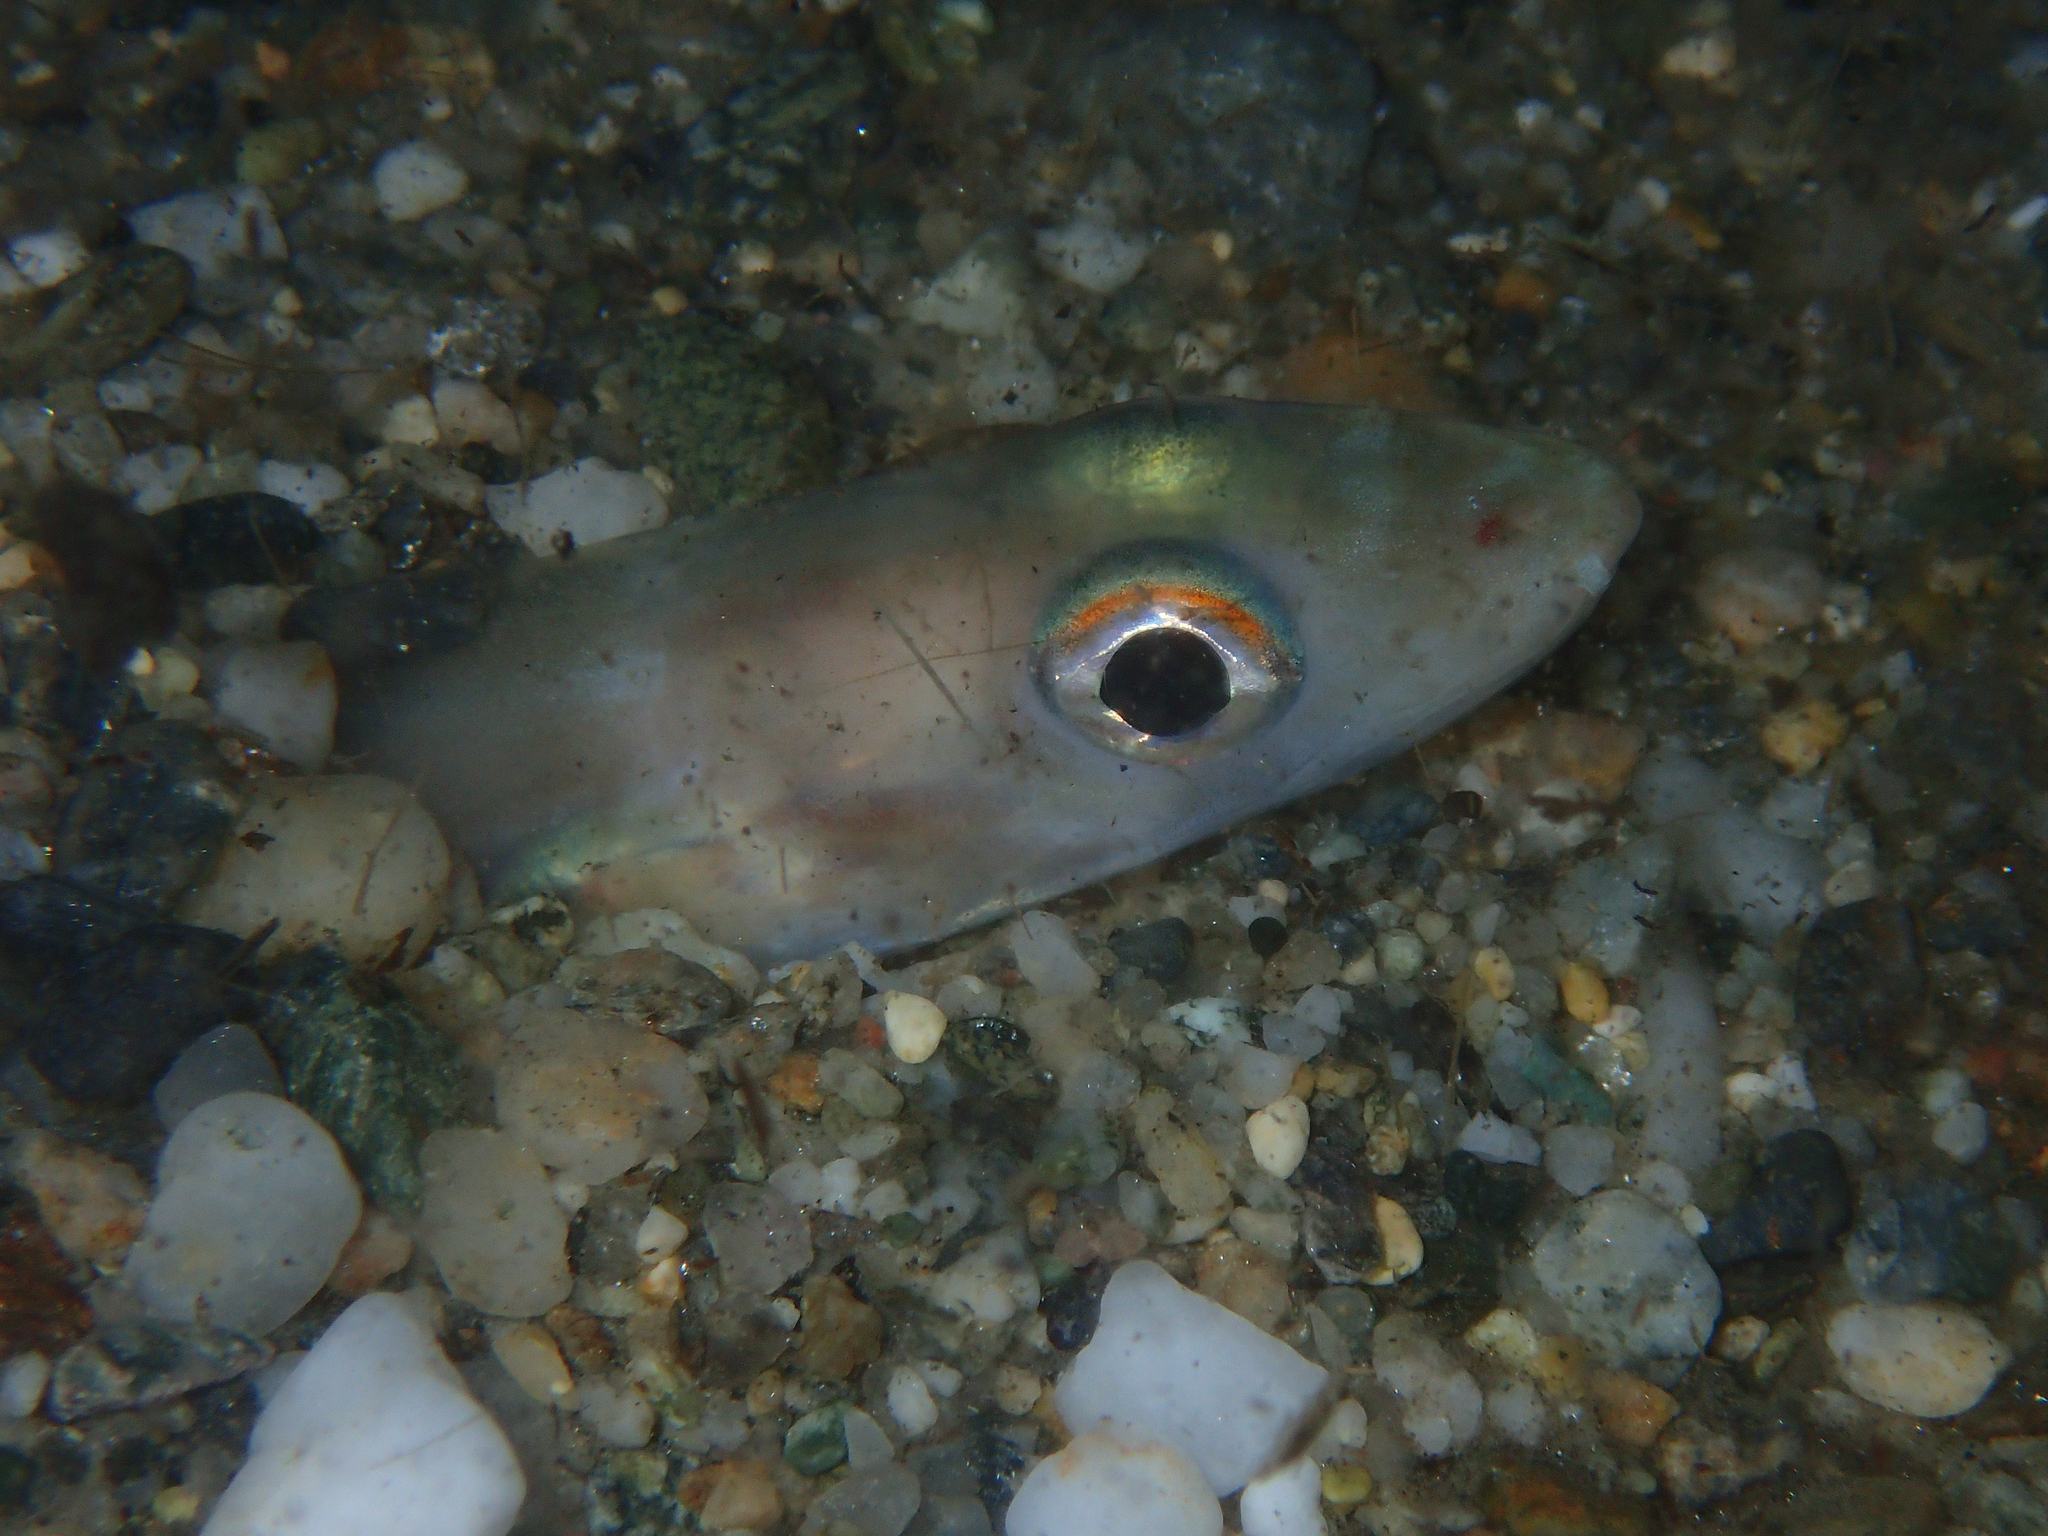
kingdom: Animalia
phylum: Chordata
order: Anguilliformes
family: Congridae
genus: Ariosoma
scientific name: Ariosoma balearicum
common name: Bandtooth conger
